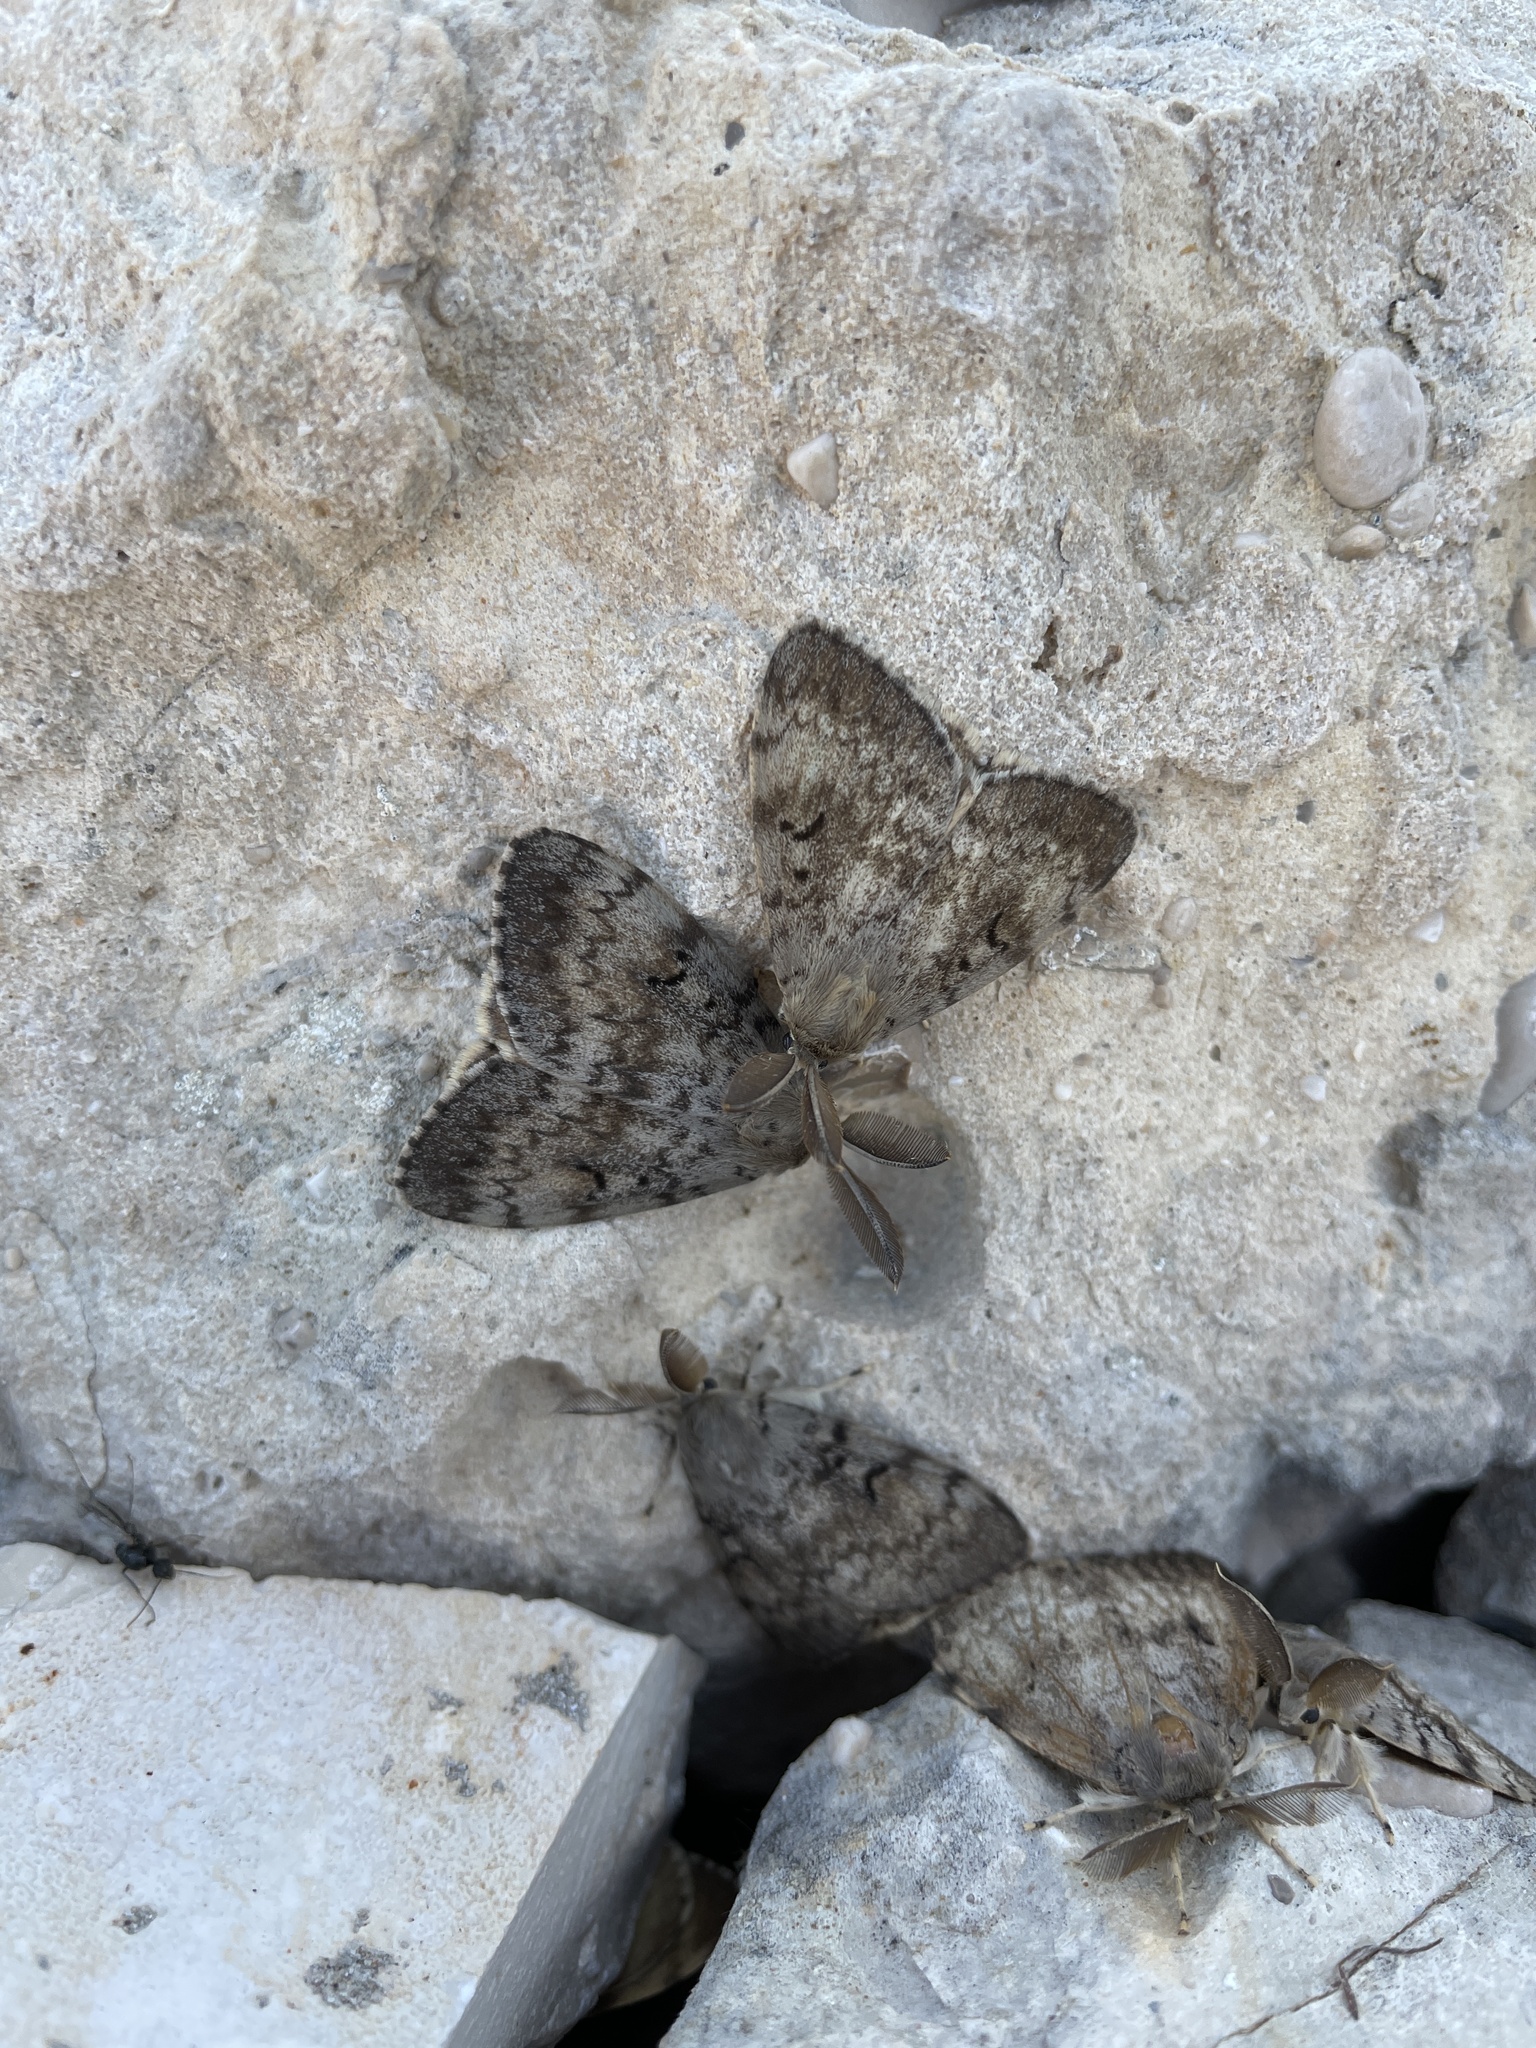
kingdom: Animalia
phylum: Arthropoda
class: Insecta
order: Lepidoptera
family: Erebidae
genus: Lymantria
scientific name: Lymantria dispar
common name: Gypsy moth
